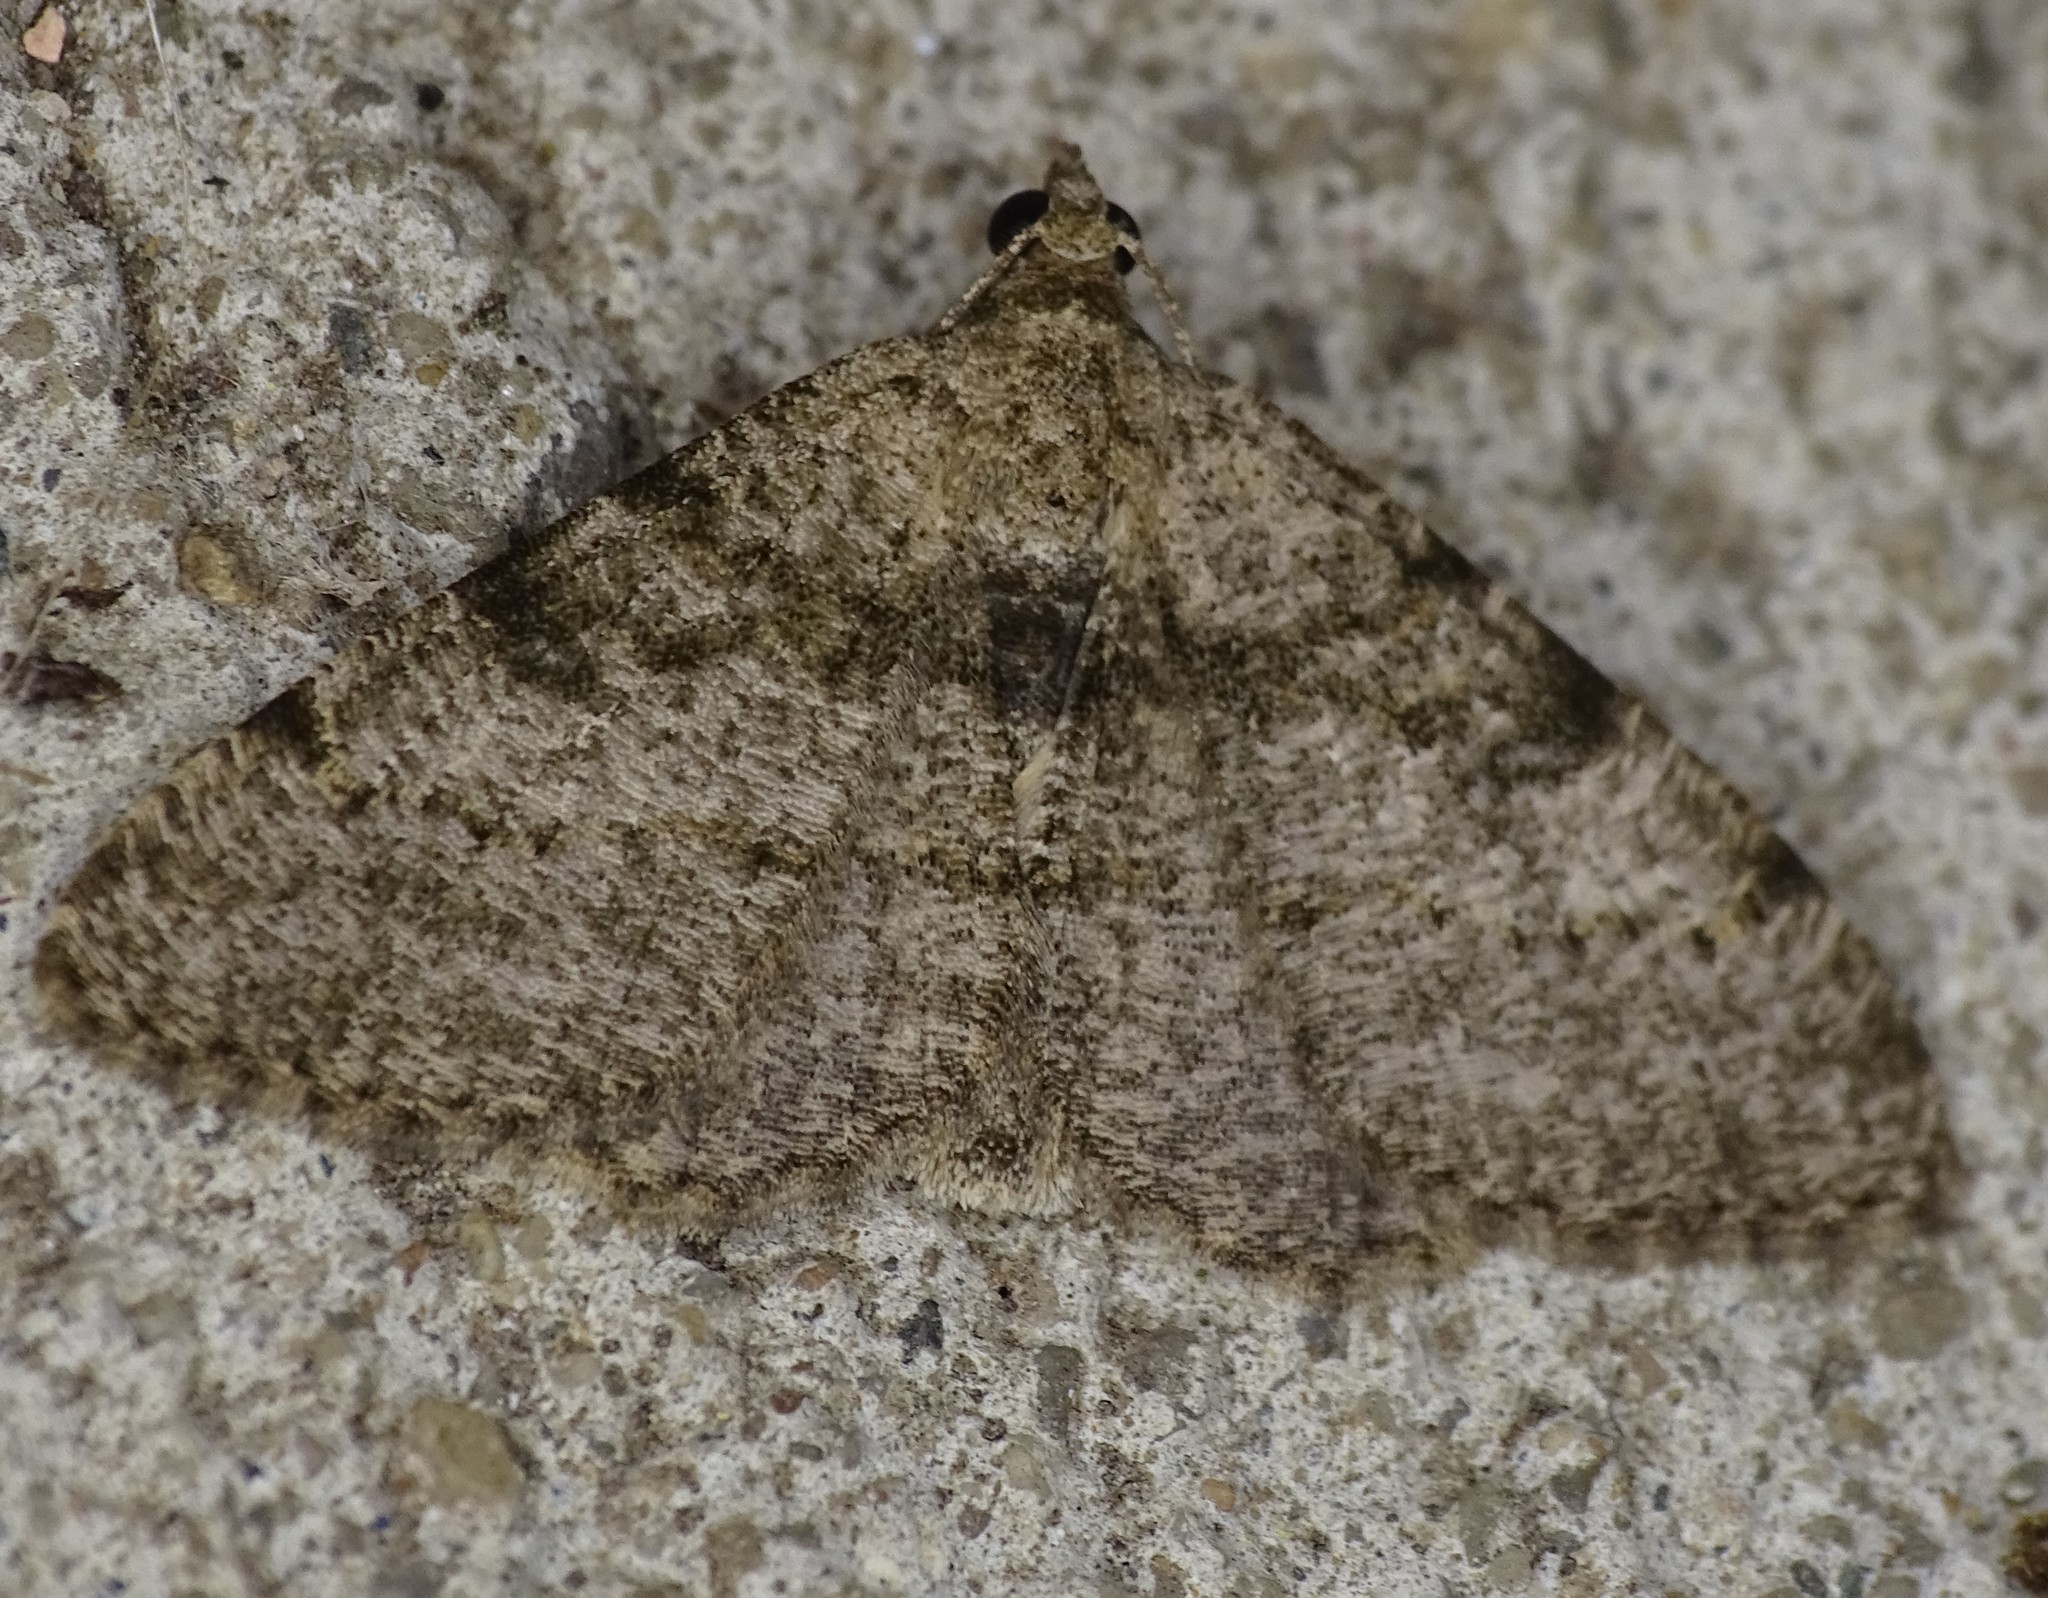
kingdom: Animalia
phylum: Arthropoda
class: Insecta
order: Lepidoptera
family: Geometridae
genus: Digrammia
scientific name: Digrammia gnophosaria
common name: Hollow-spotted angle
